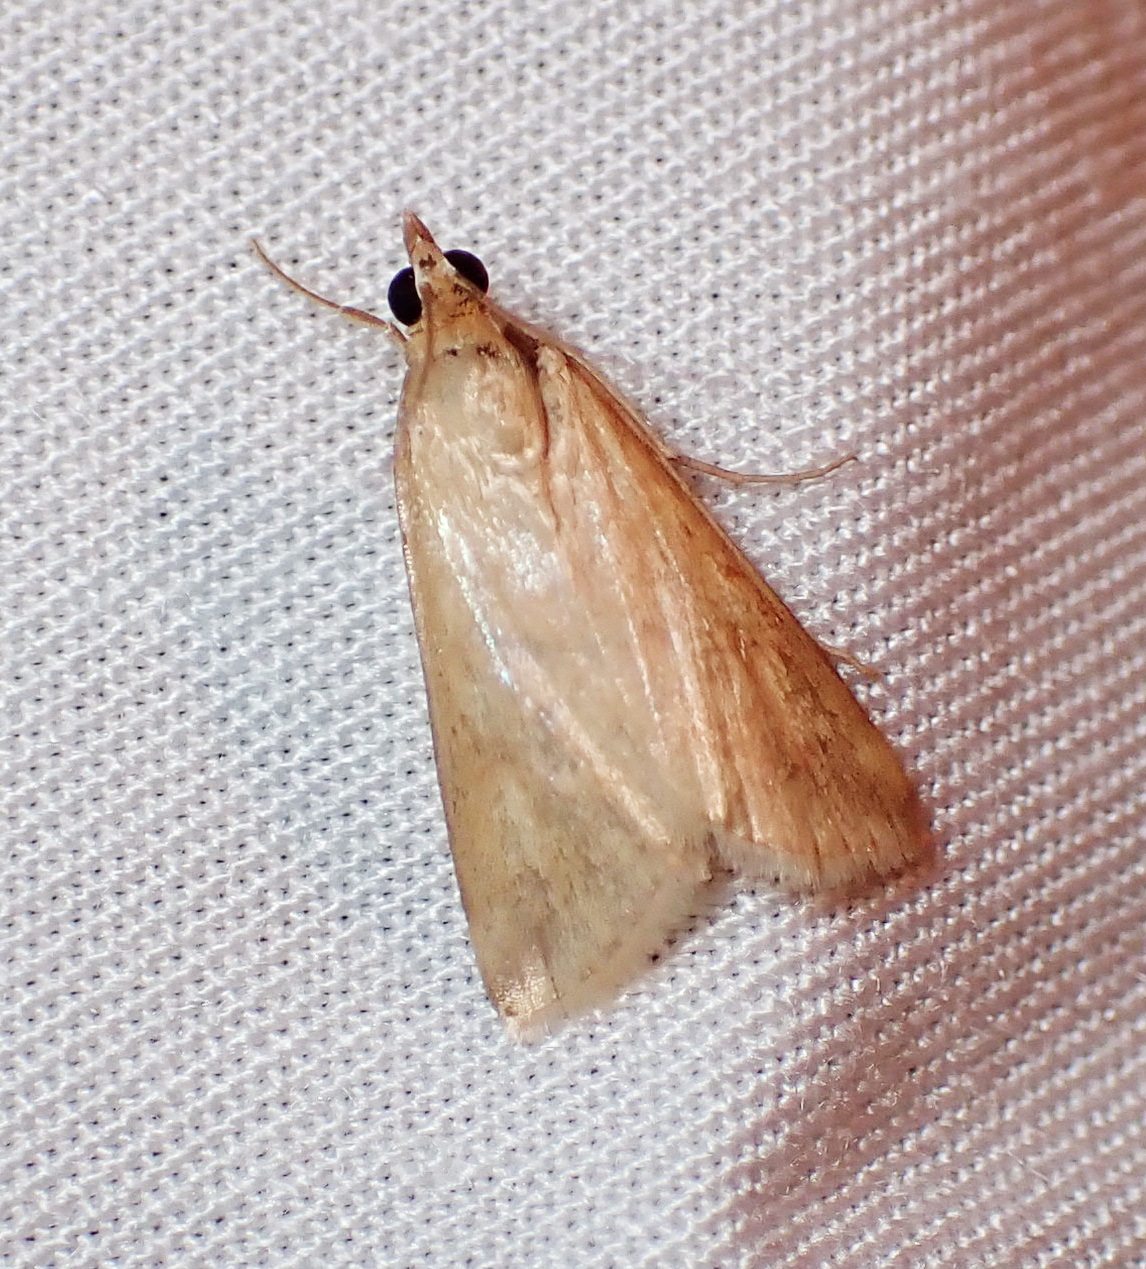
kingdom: Animalia
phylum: Arthropoda
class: Insecta
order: Lepidoptera
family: Crambidae
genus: Achyra
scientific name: Achyra bifidalis
